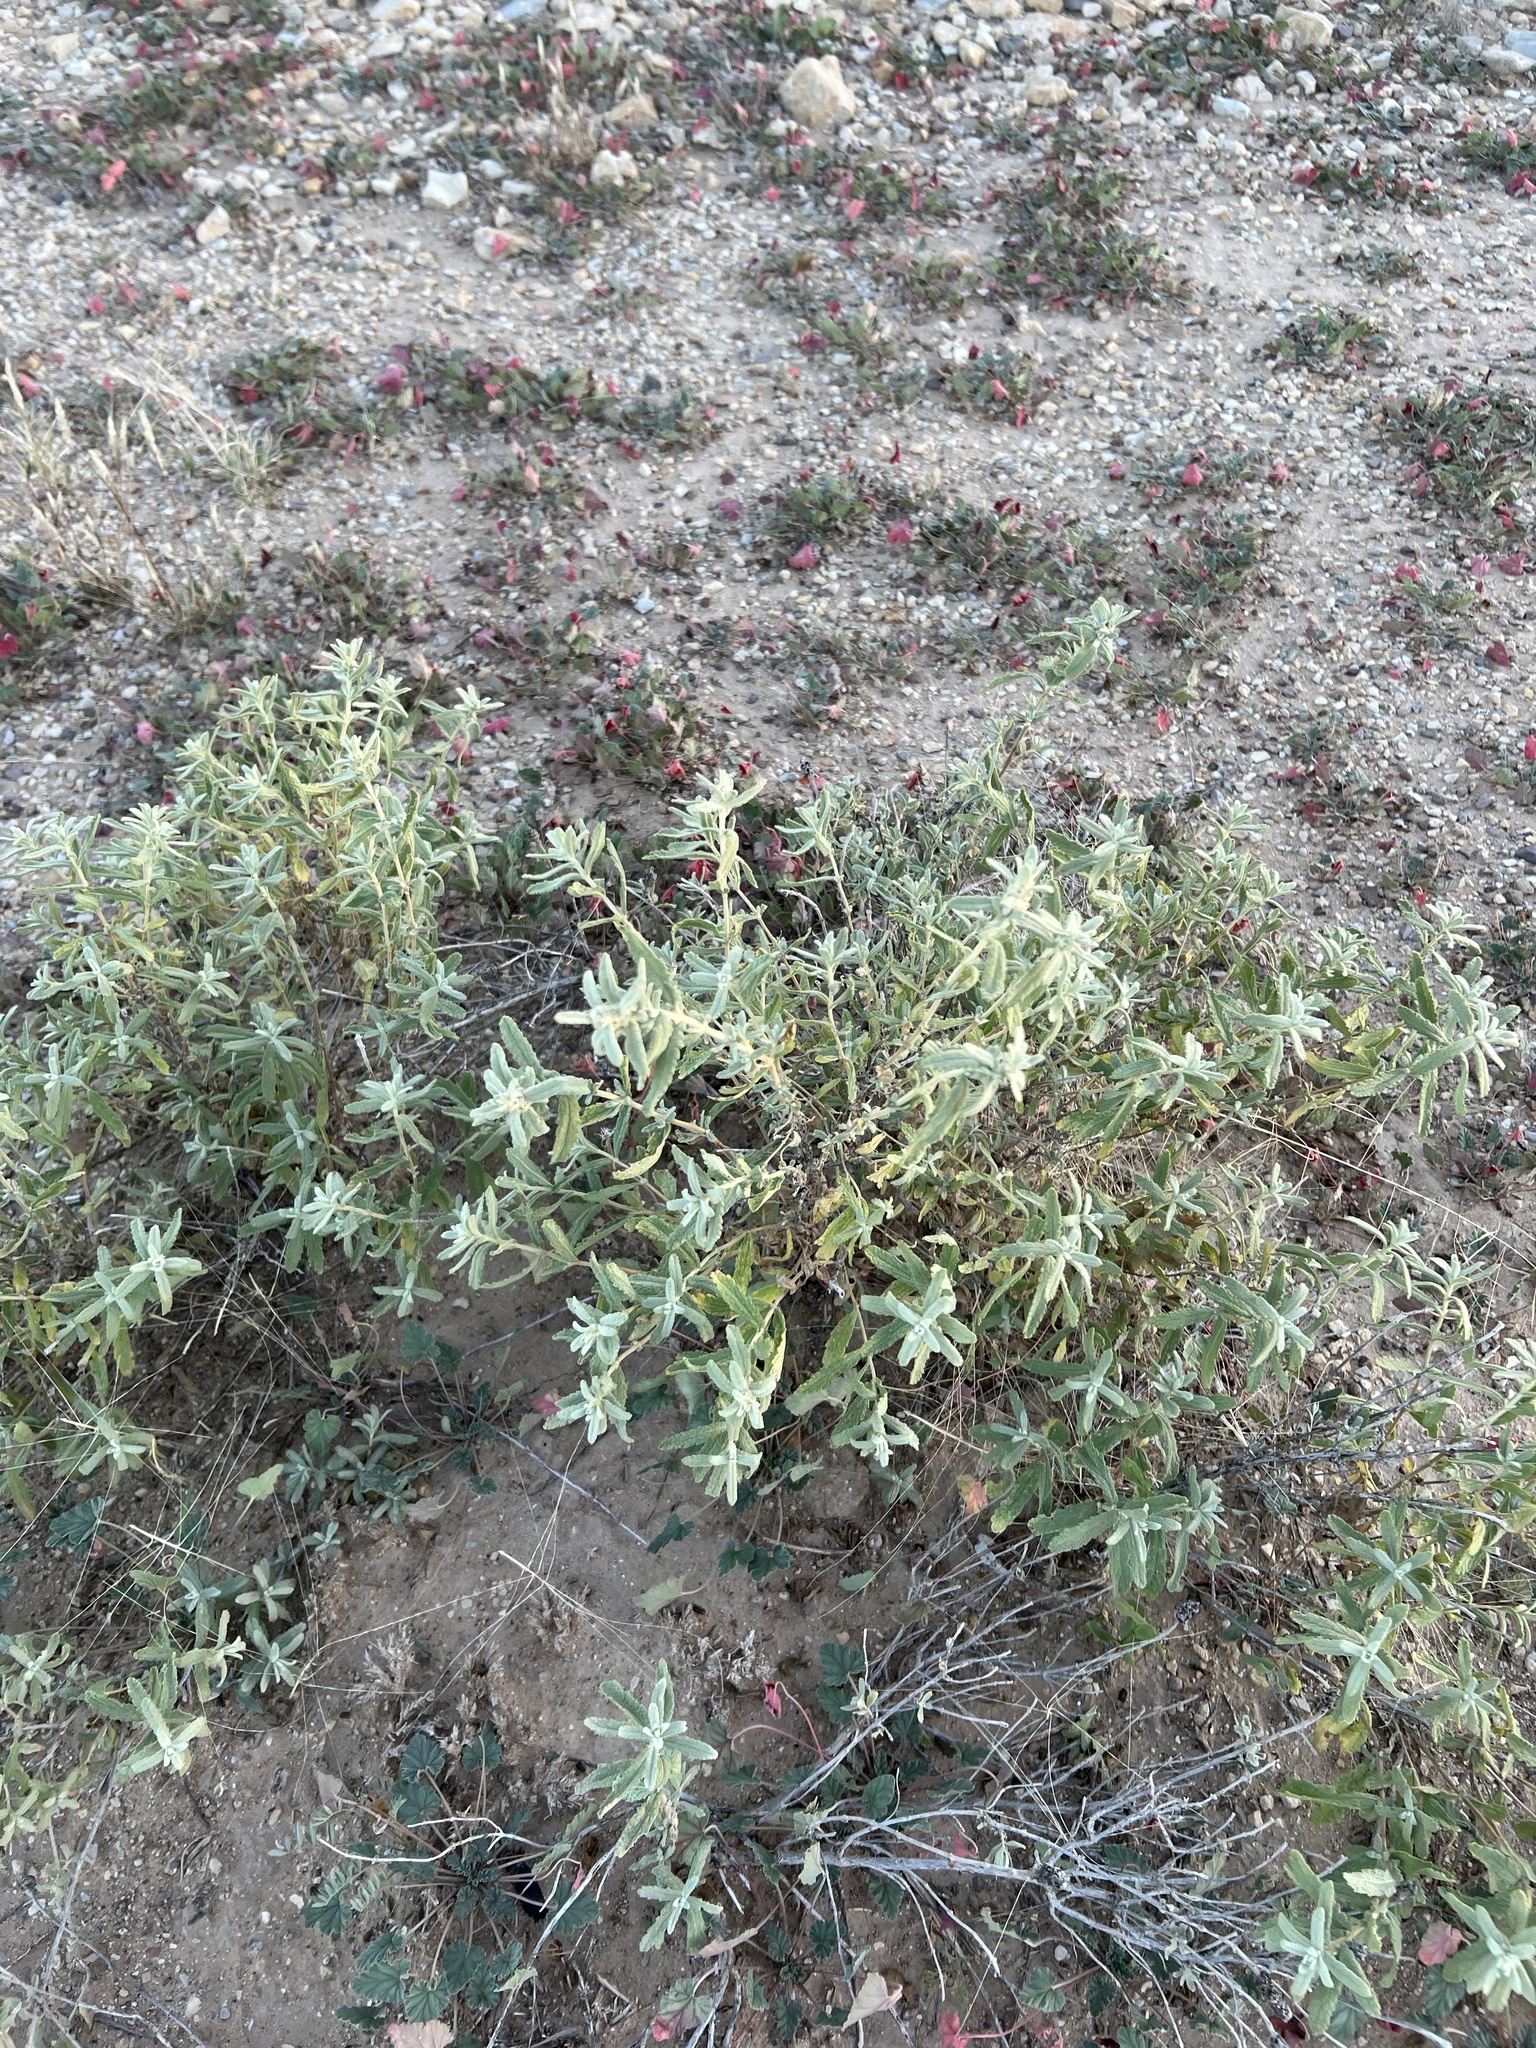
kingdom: Plantae
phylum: Tracheophyta
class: Magnoliopsida
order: Lamiales
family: Scrophulariaceae
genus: Buddleja
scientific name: Buddleja scordioides
